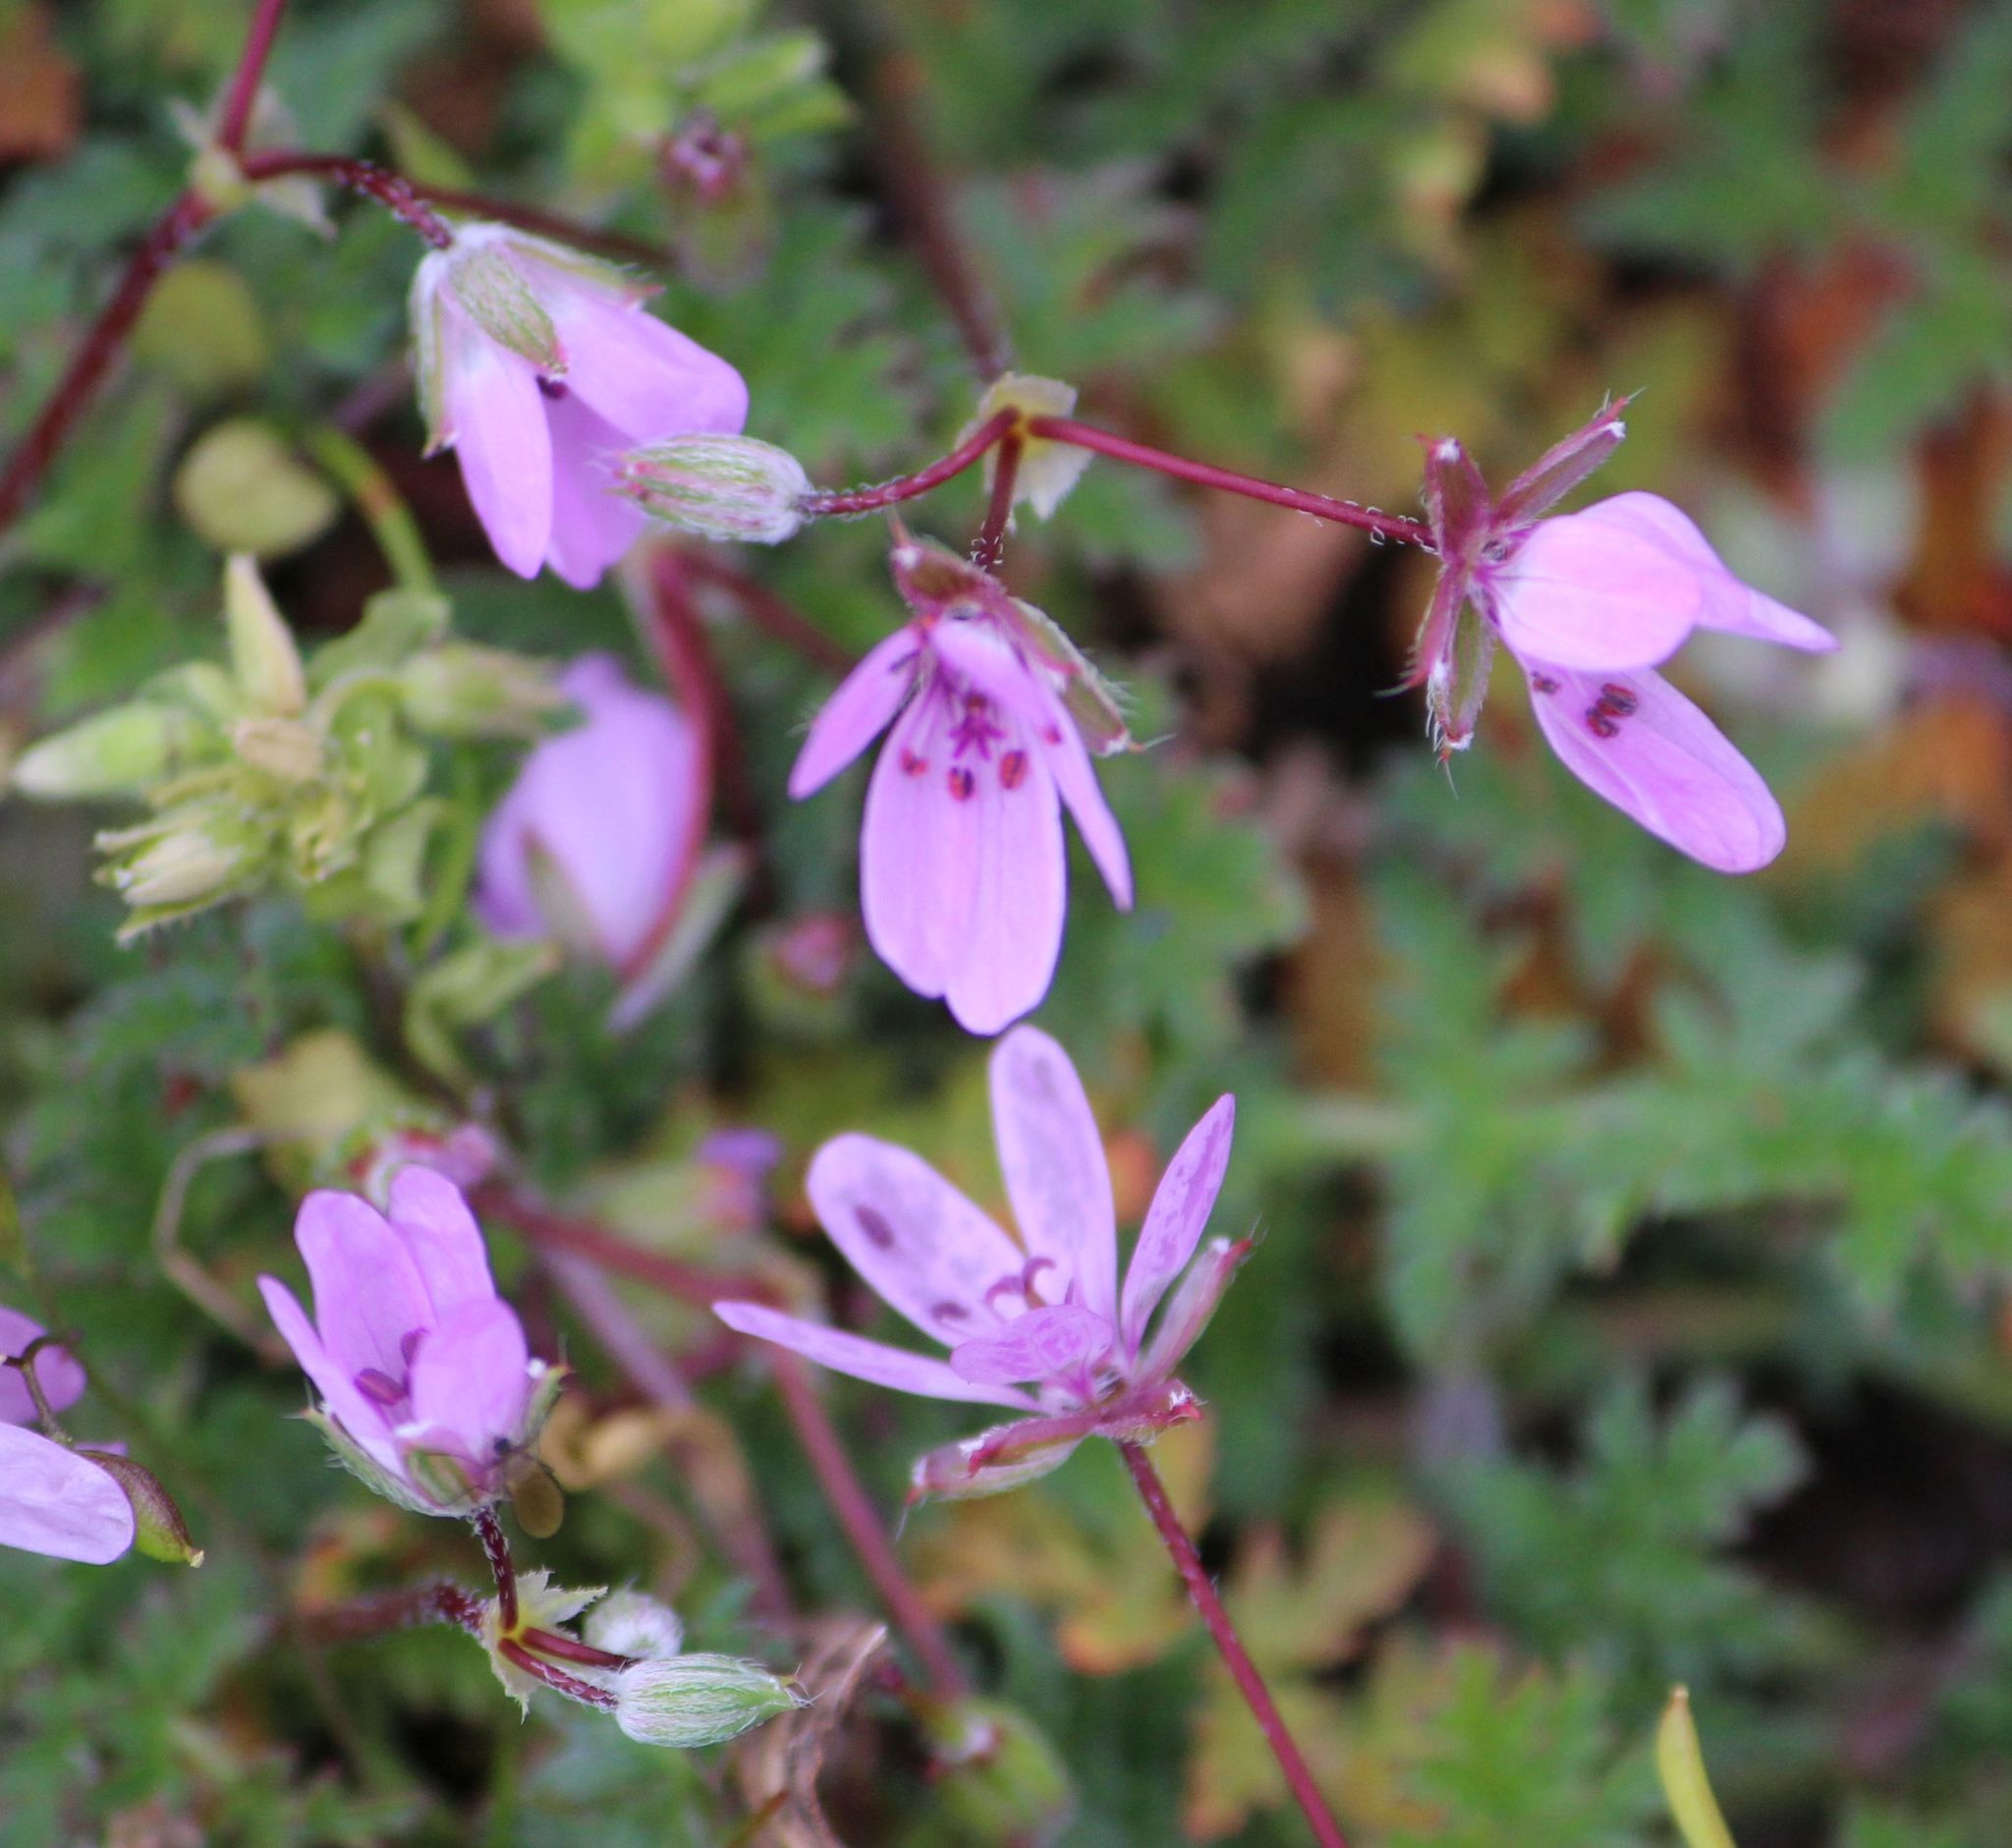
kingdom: Plantae
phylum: Tracheophyta
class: Magnoliopsida
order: Geraniales
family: Geraniaceae
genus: Erodium
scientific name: Erodium cicutarium
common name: Common stork's-bill
